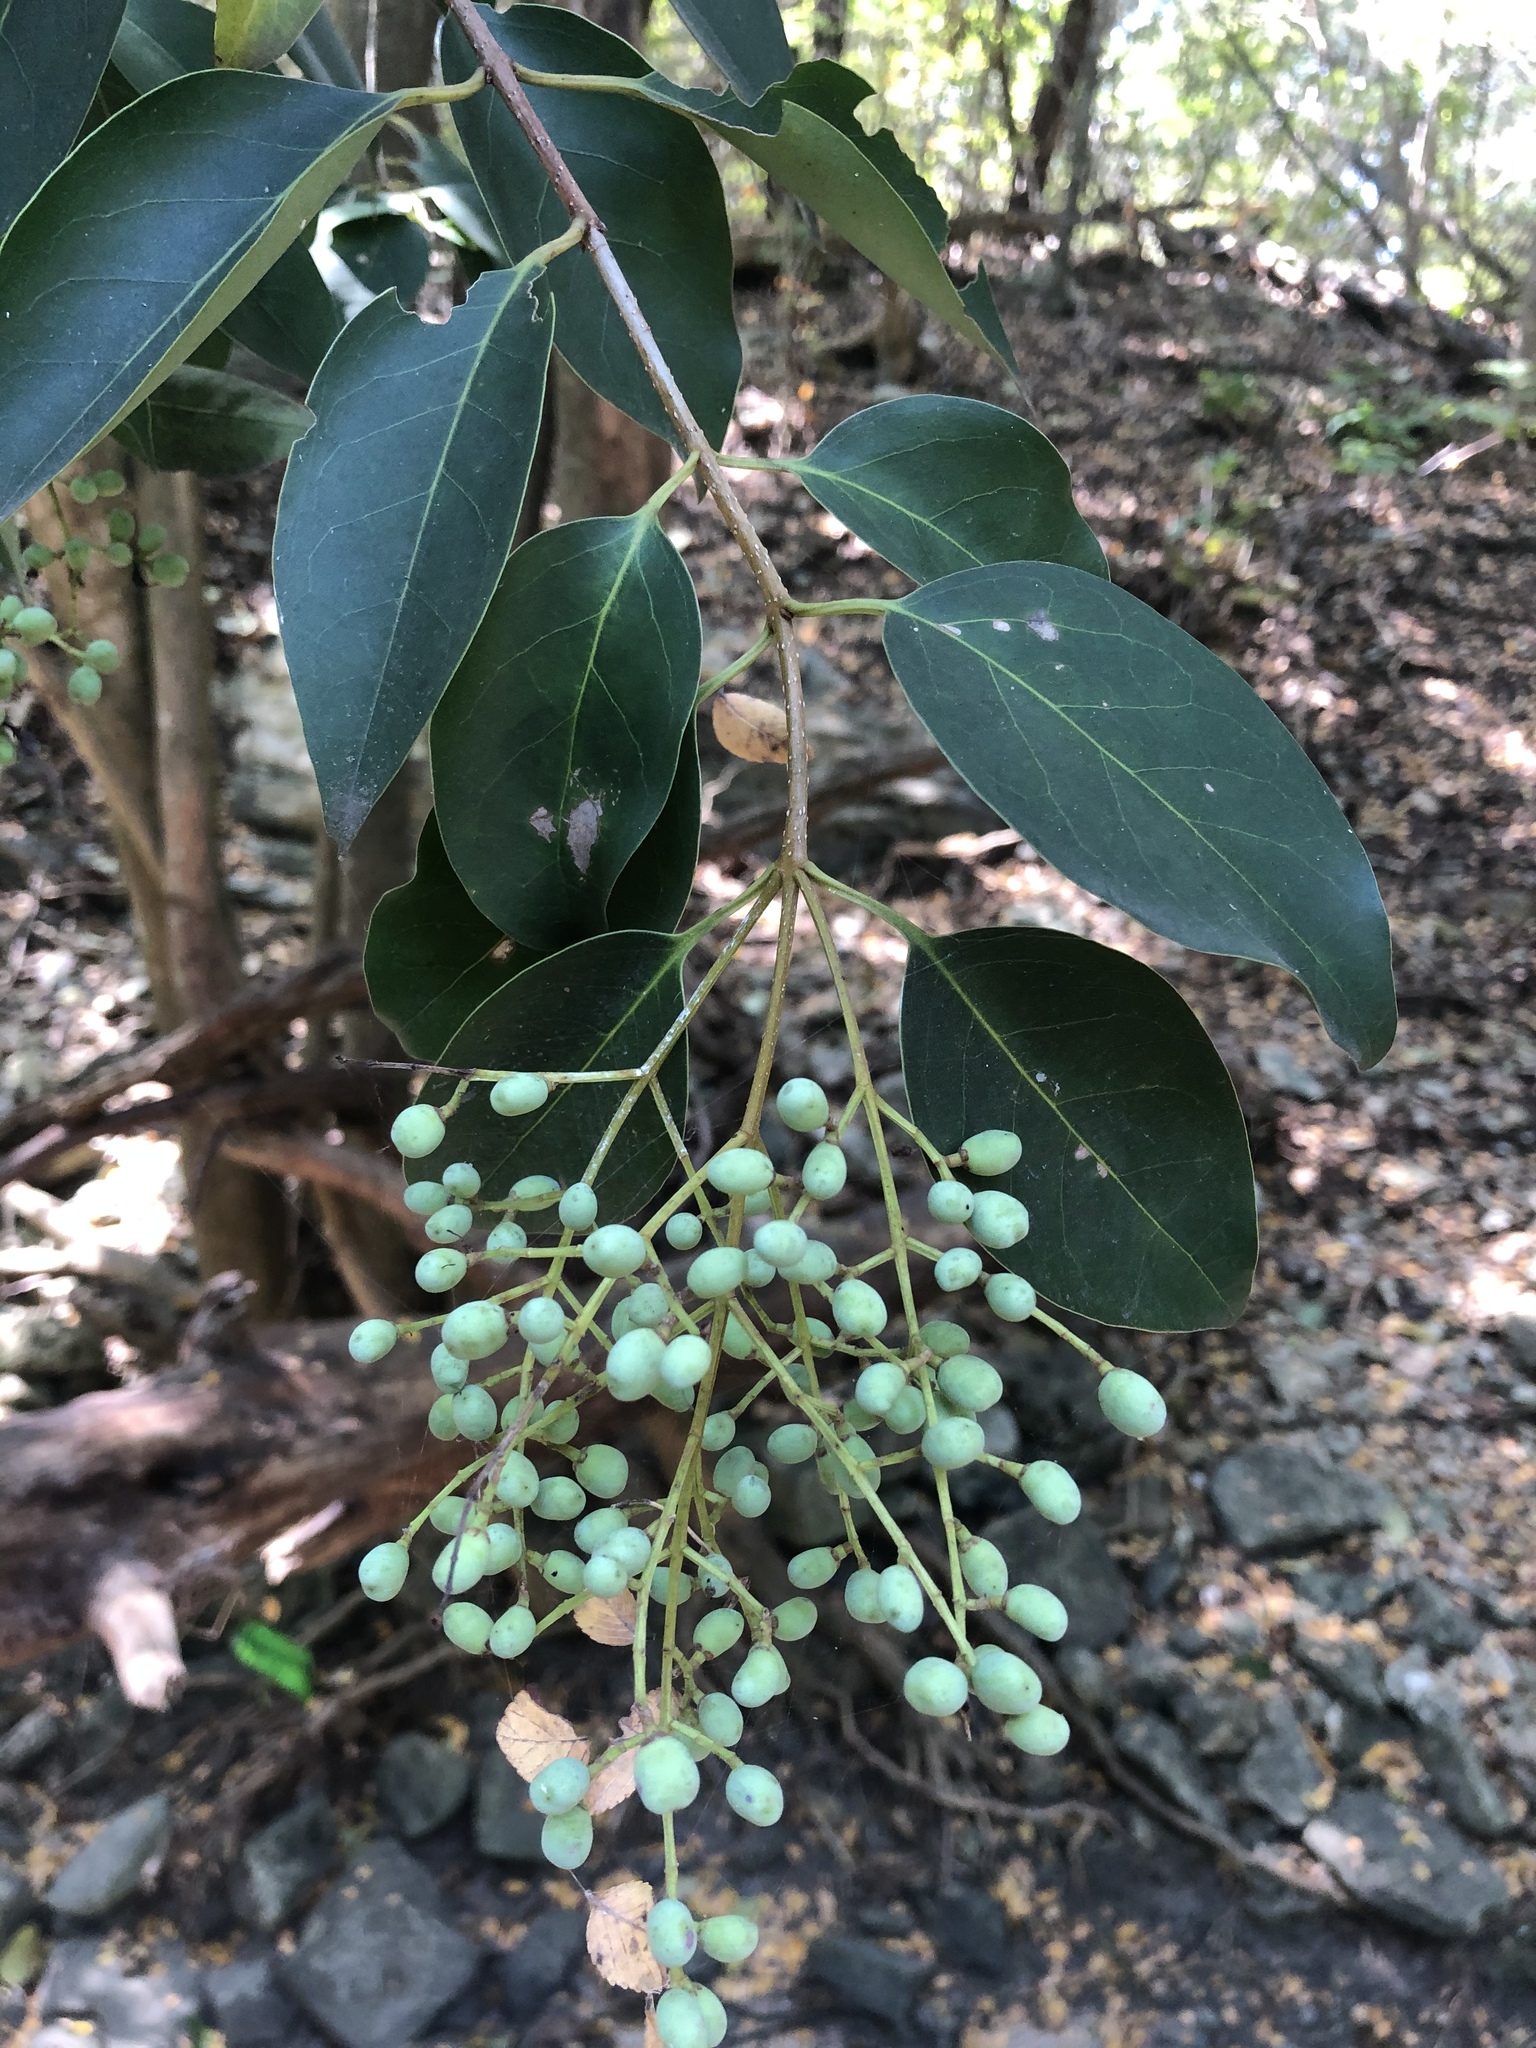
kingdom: Plantae
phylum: Tracheophyta
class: Magnoliopsida
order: Lamiales
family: Oleaceae
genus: Ligustrum
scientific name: Ligustrum lucidum
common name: Glossy privet
